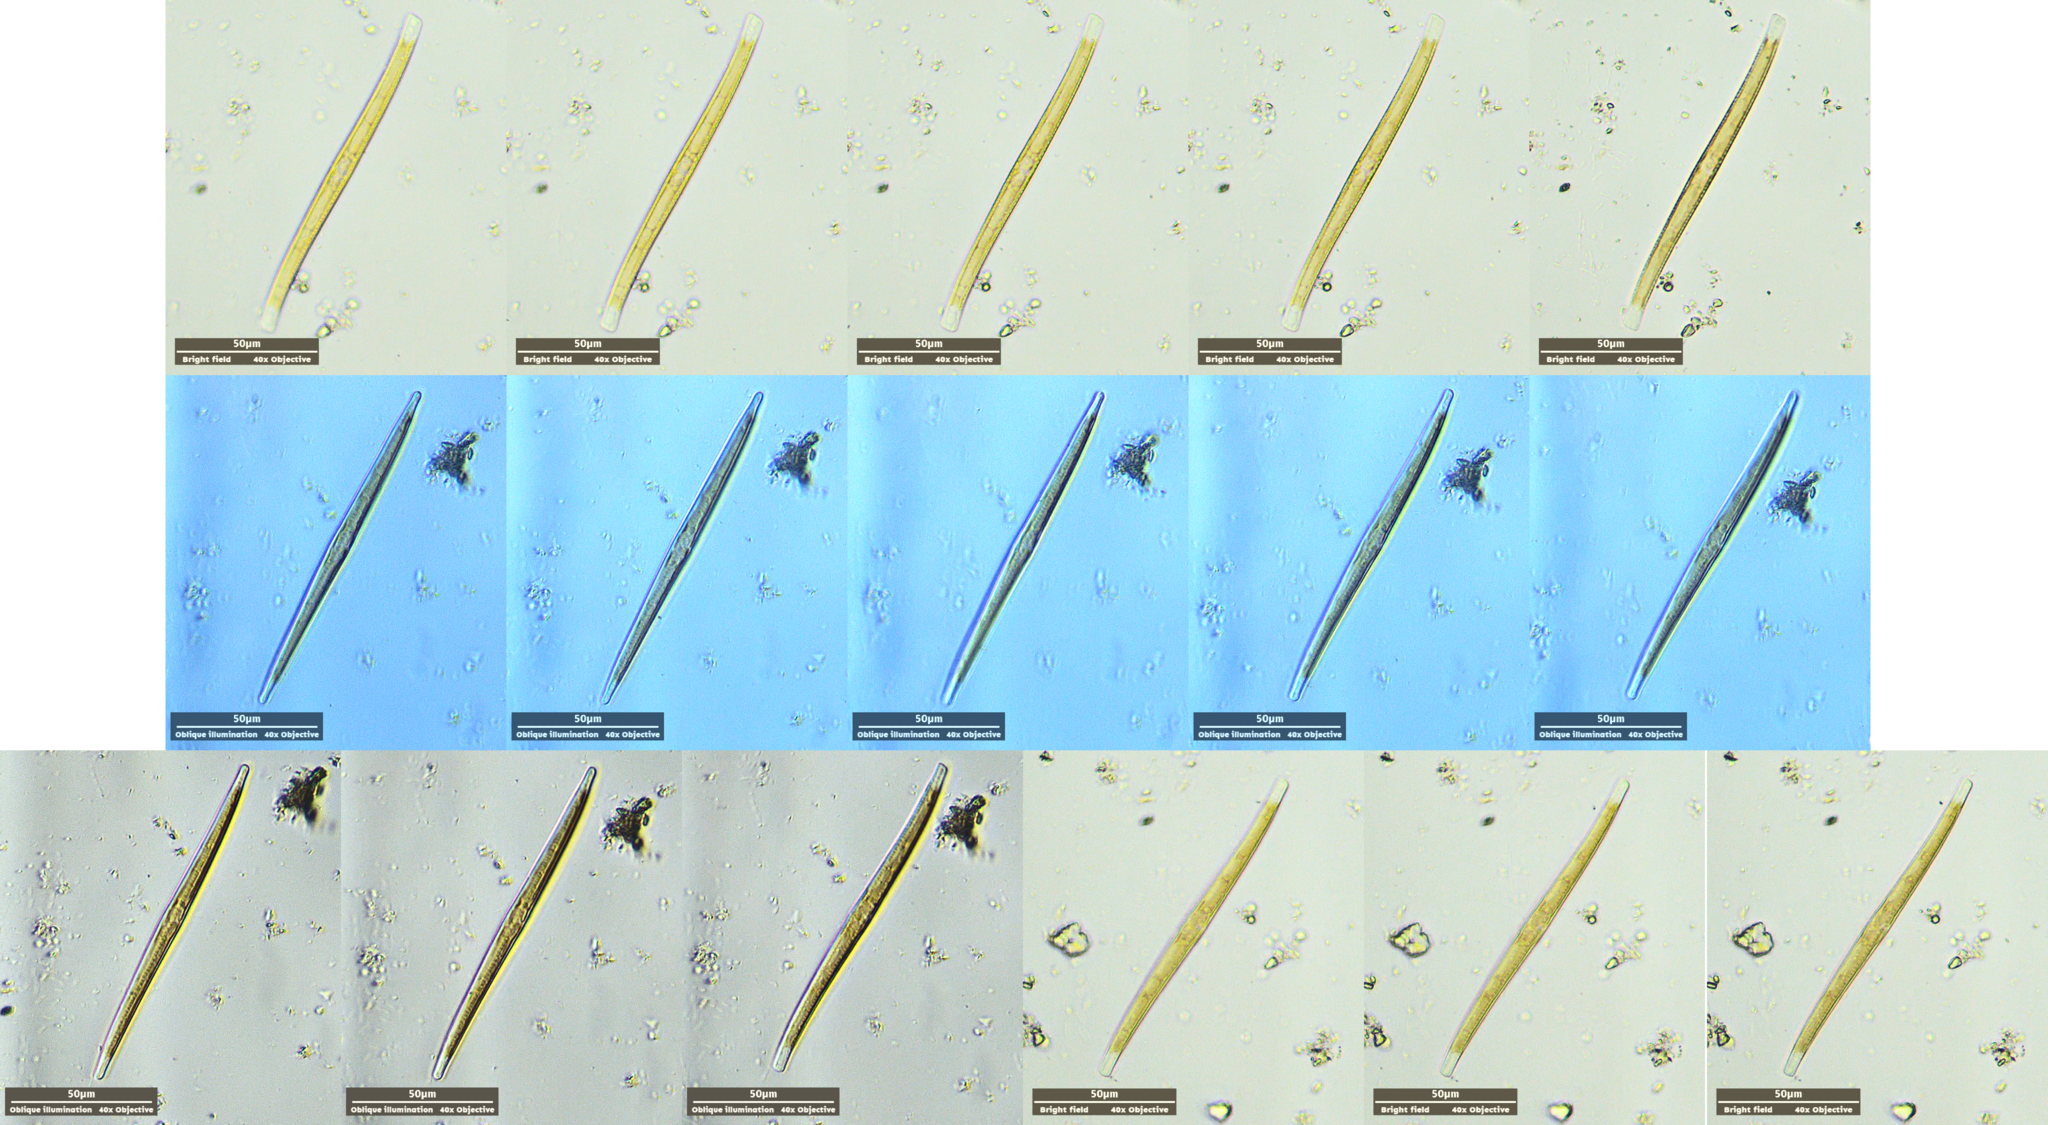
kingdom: Chromista
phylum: Ochrophyta
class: Bacillariophyceae
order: Bacillariales
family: Bacillariaceae
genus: Nitzschia
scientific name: Nitzschia
